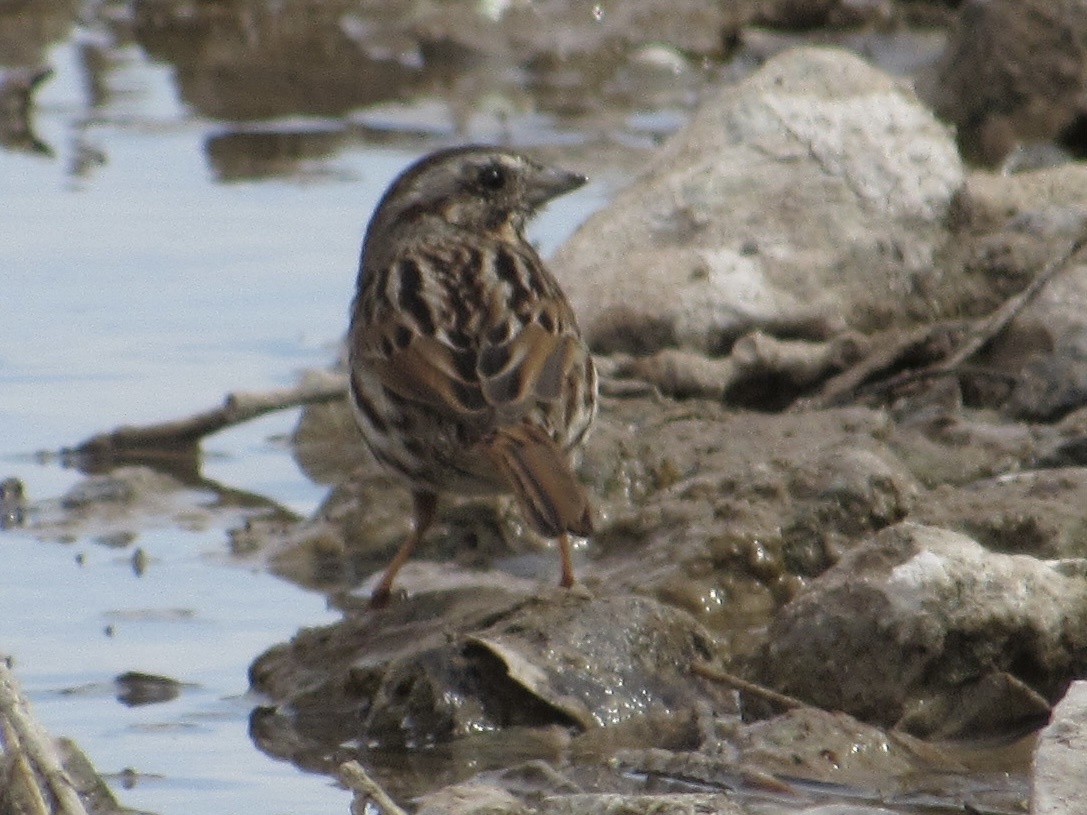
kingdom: Animalia
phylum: Chordata
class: Aves
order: Passeriformes
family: Passerellidae
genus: Melospiza
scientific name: Melospiza melodia
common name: Song sparrow
